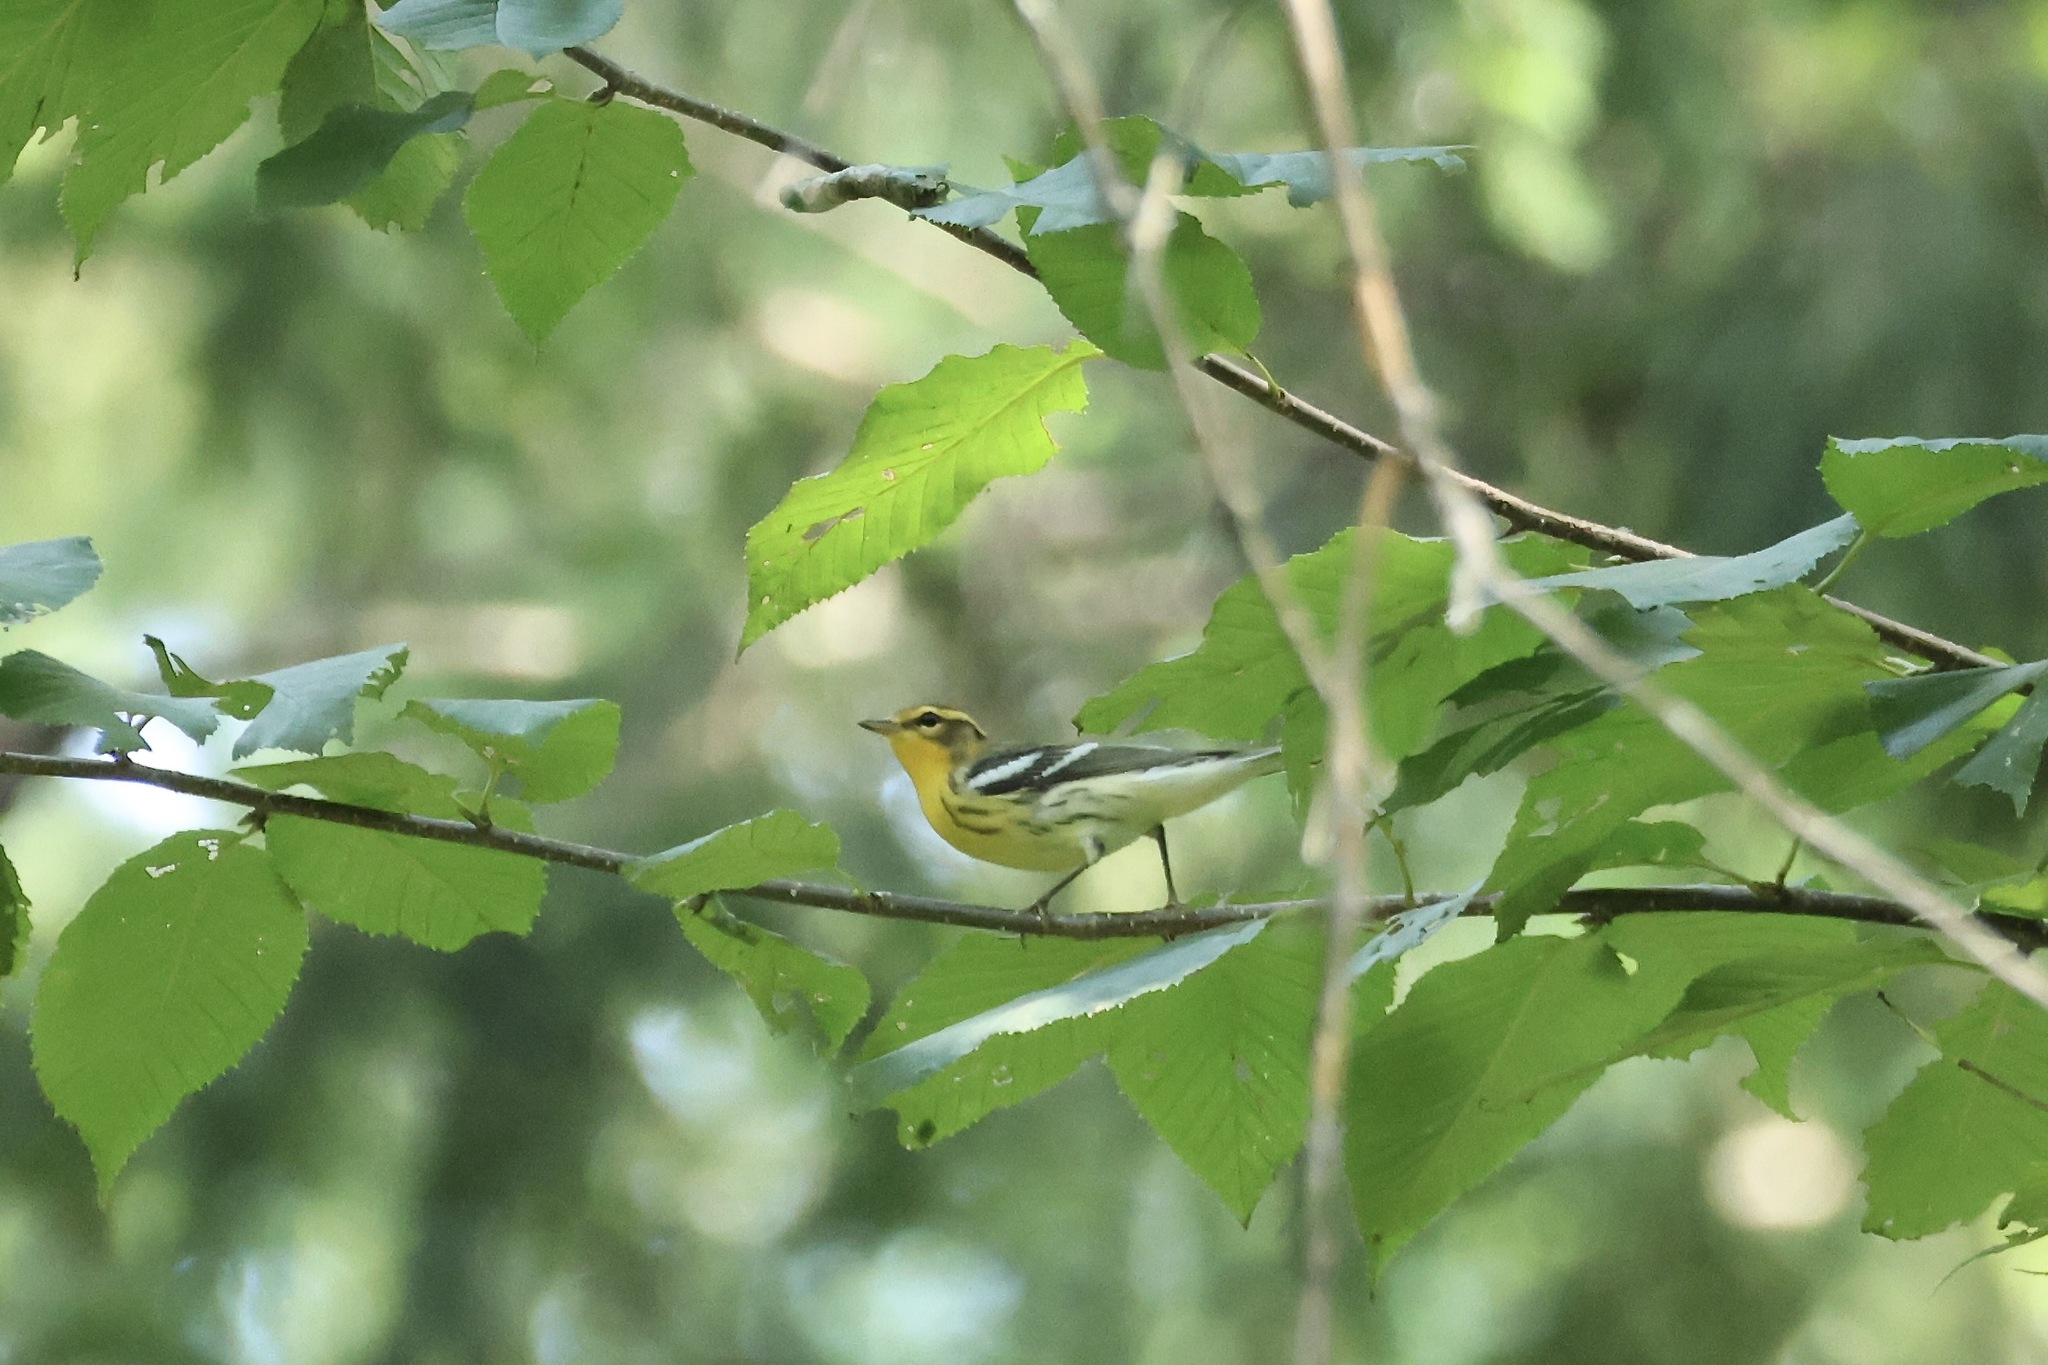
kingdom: Animalia
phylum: Chordata
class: Aves
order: Passeriformes
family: Parulidae
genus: Setophaga
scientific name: Setophaga fusca
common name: Blackburnian warbler
